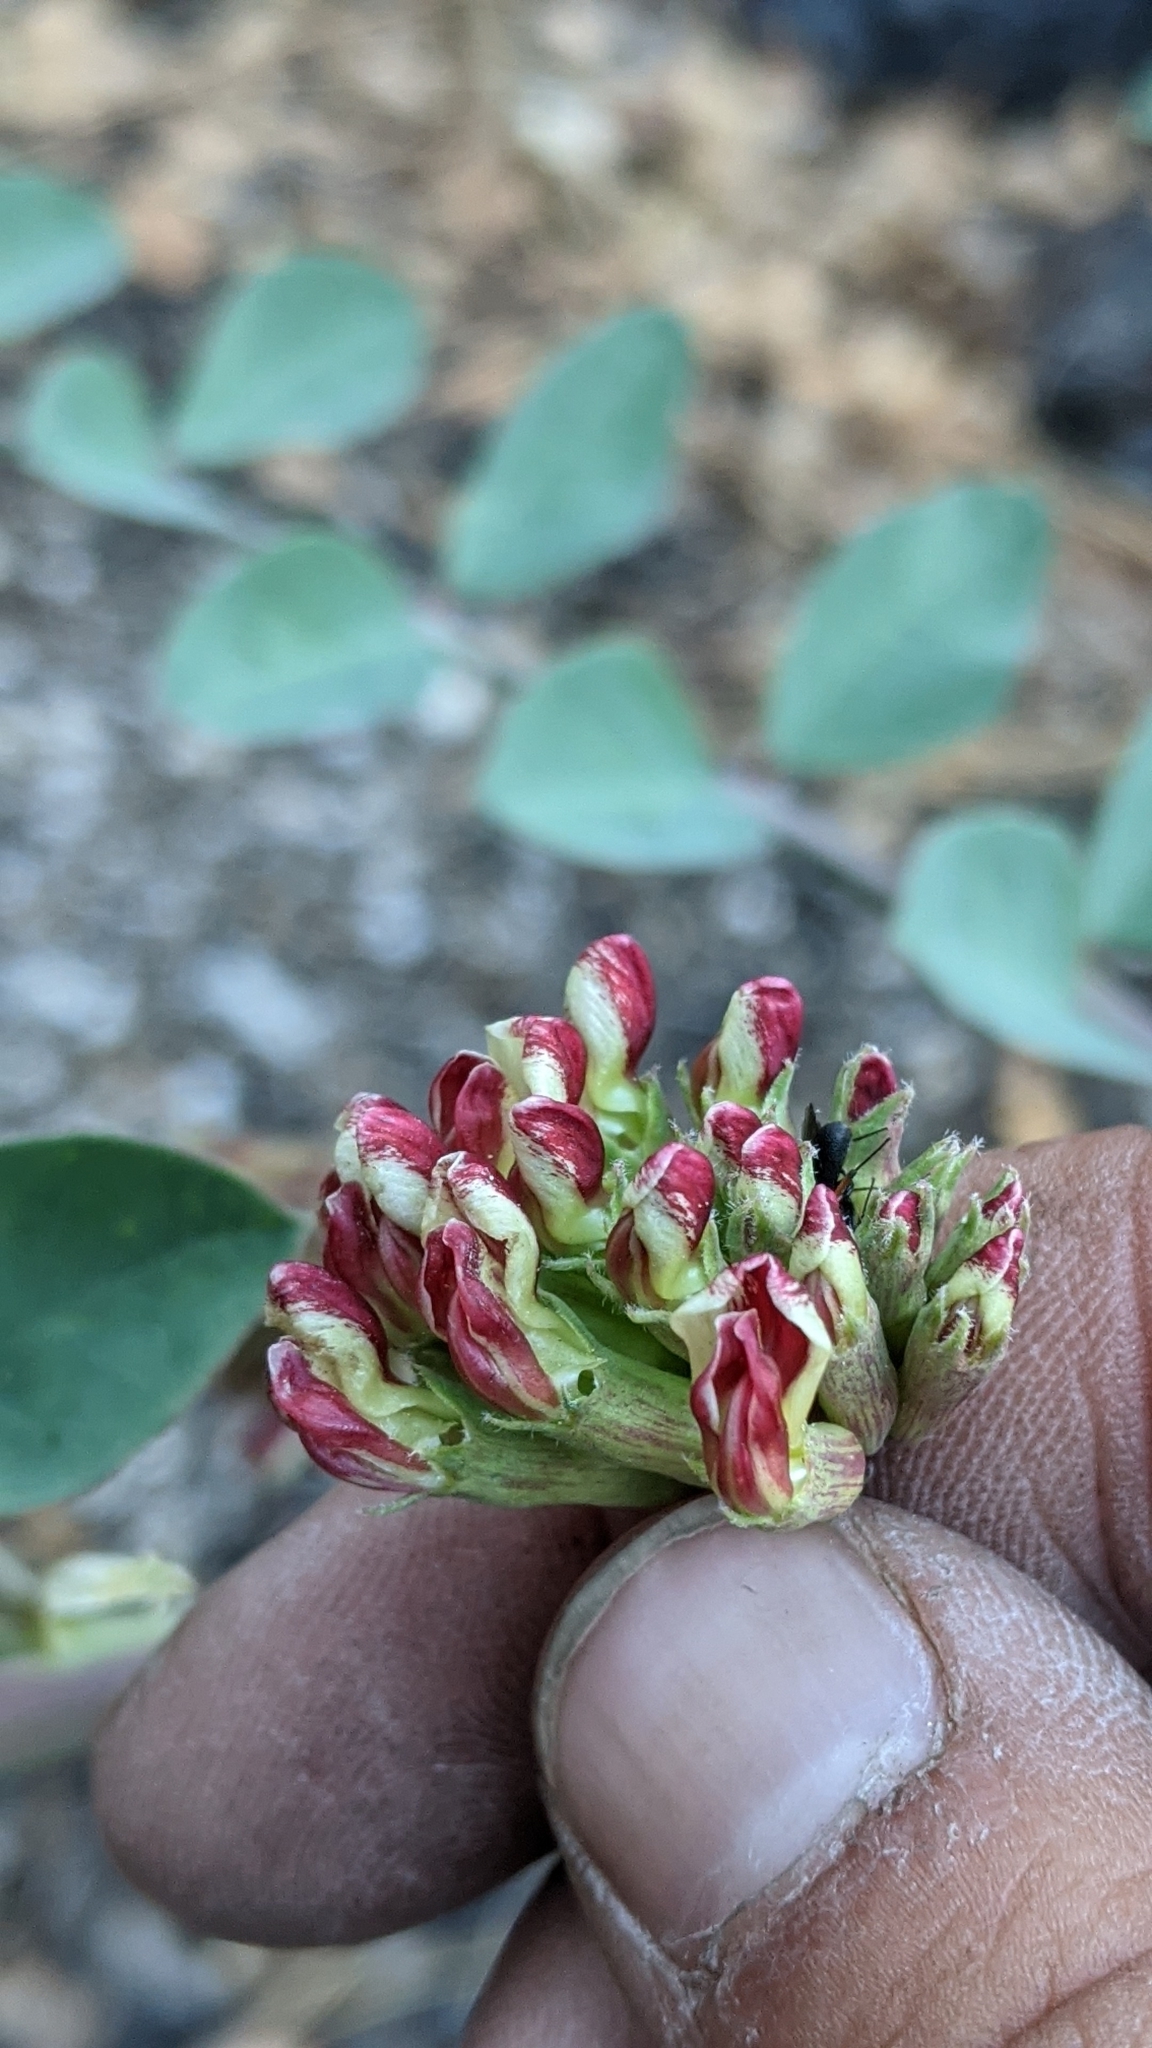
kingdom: Plantae
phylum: Tracheophyta
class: Magnoliopsida
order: Fabales
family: Fabaceae
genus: Hosackia
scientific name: Hosackia crassifolia
